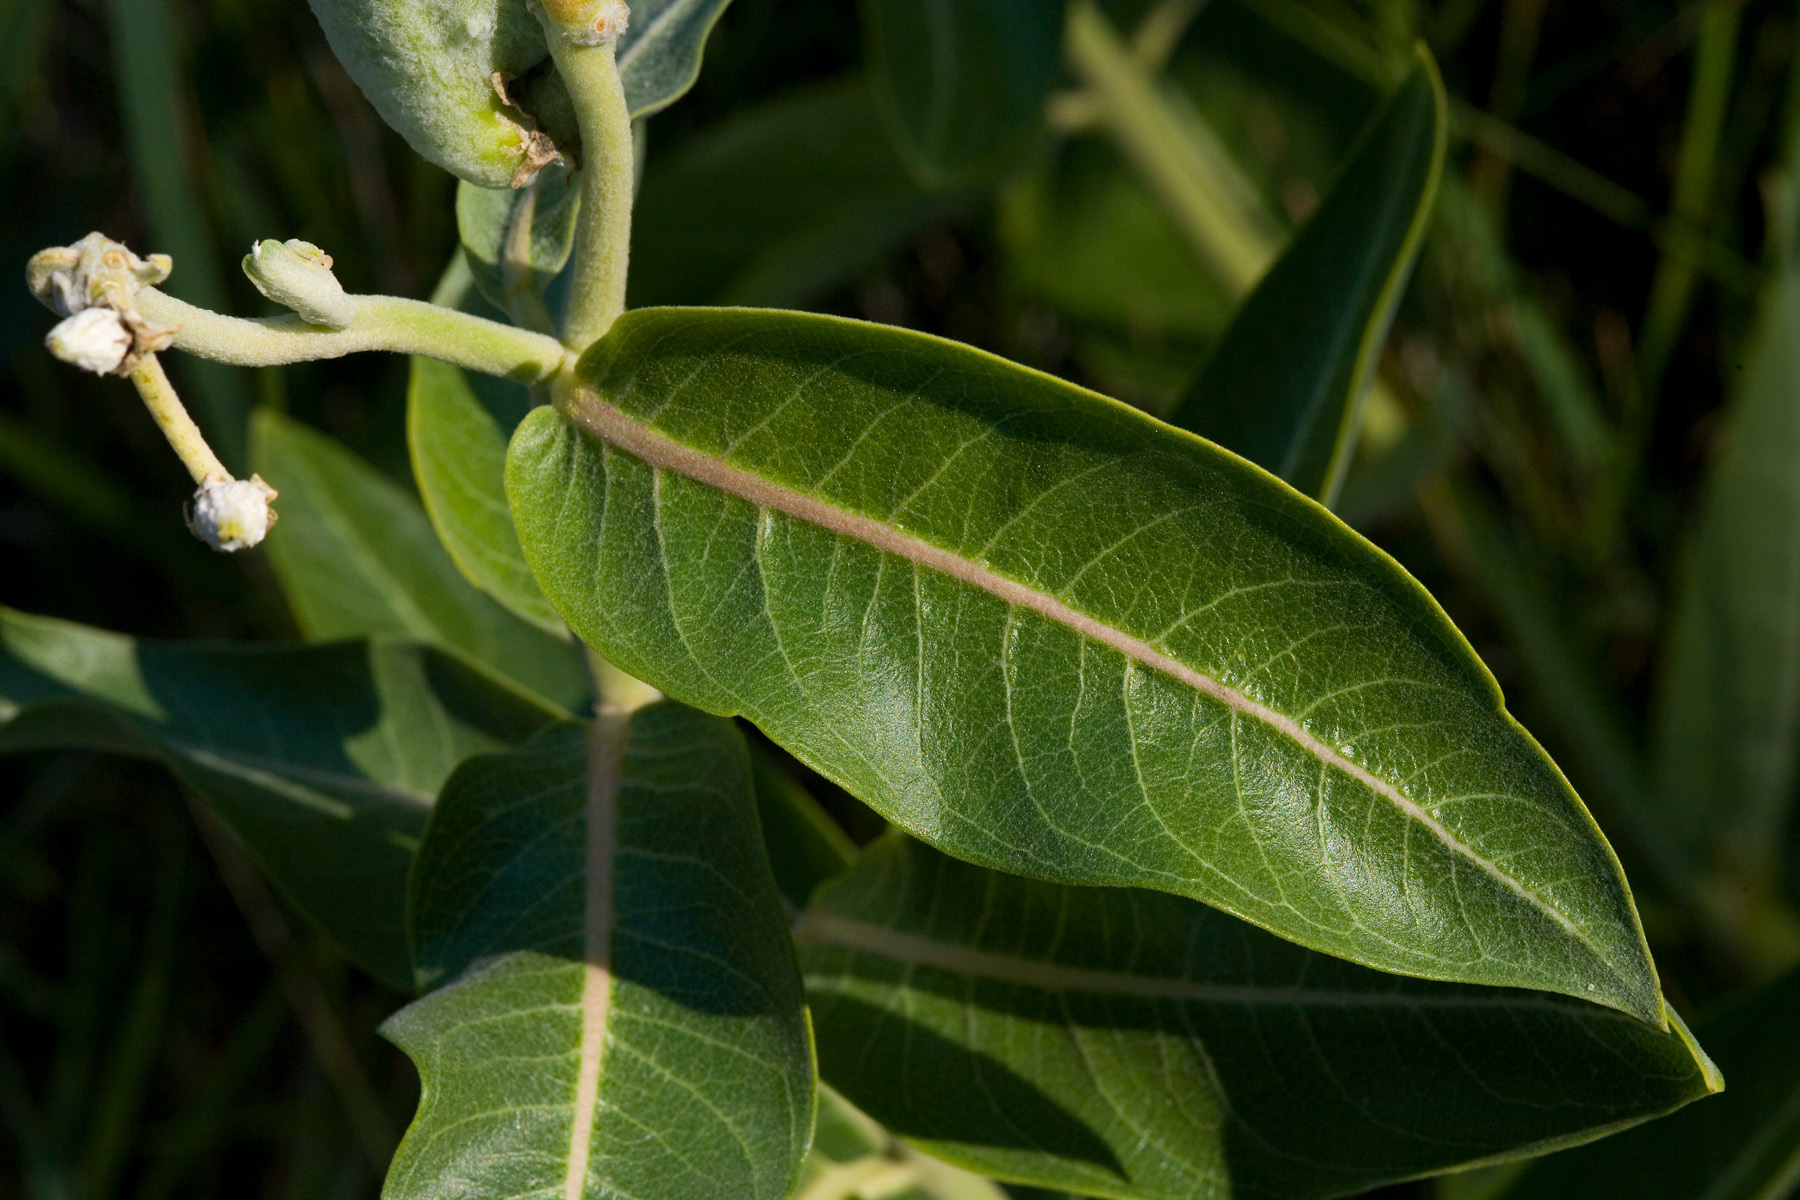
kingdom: Plantae
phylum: Tracheophyta
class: Magnoliopsida
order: Gentianales
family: Apocynaceae
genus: Asclepias
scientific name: Asclepias speciosa
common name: Showy milkweed
